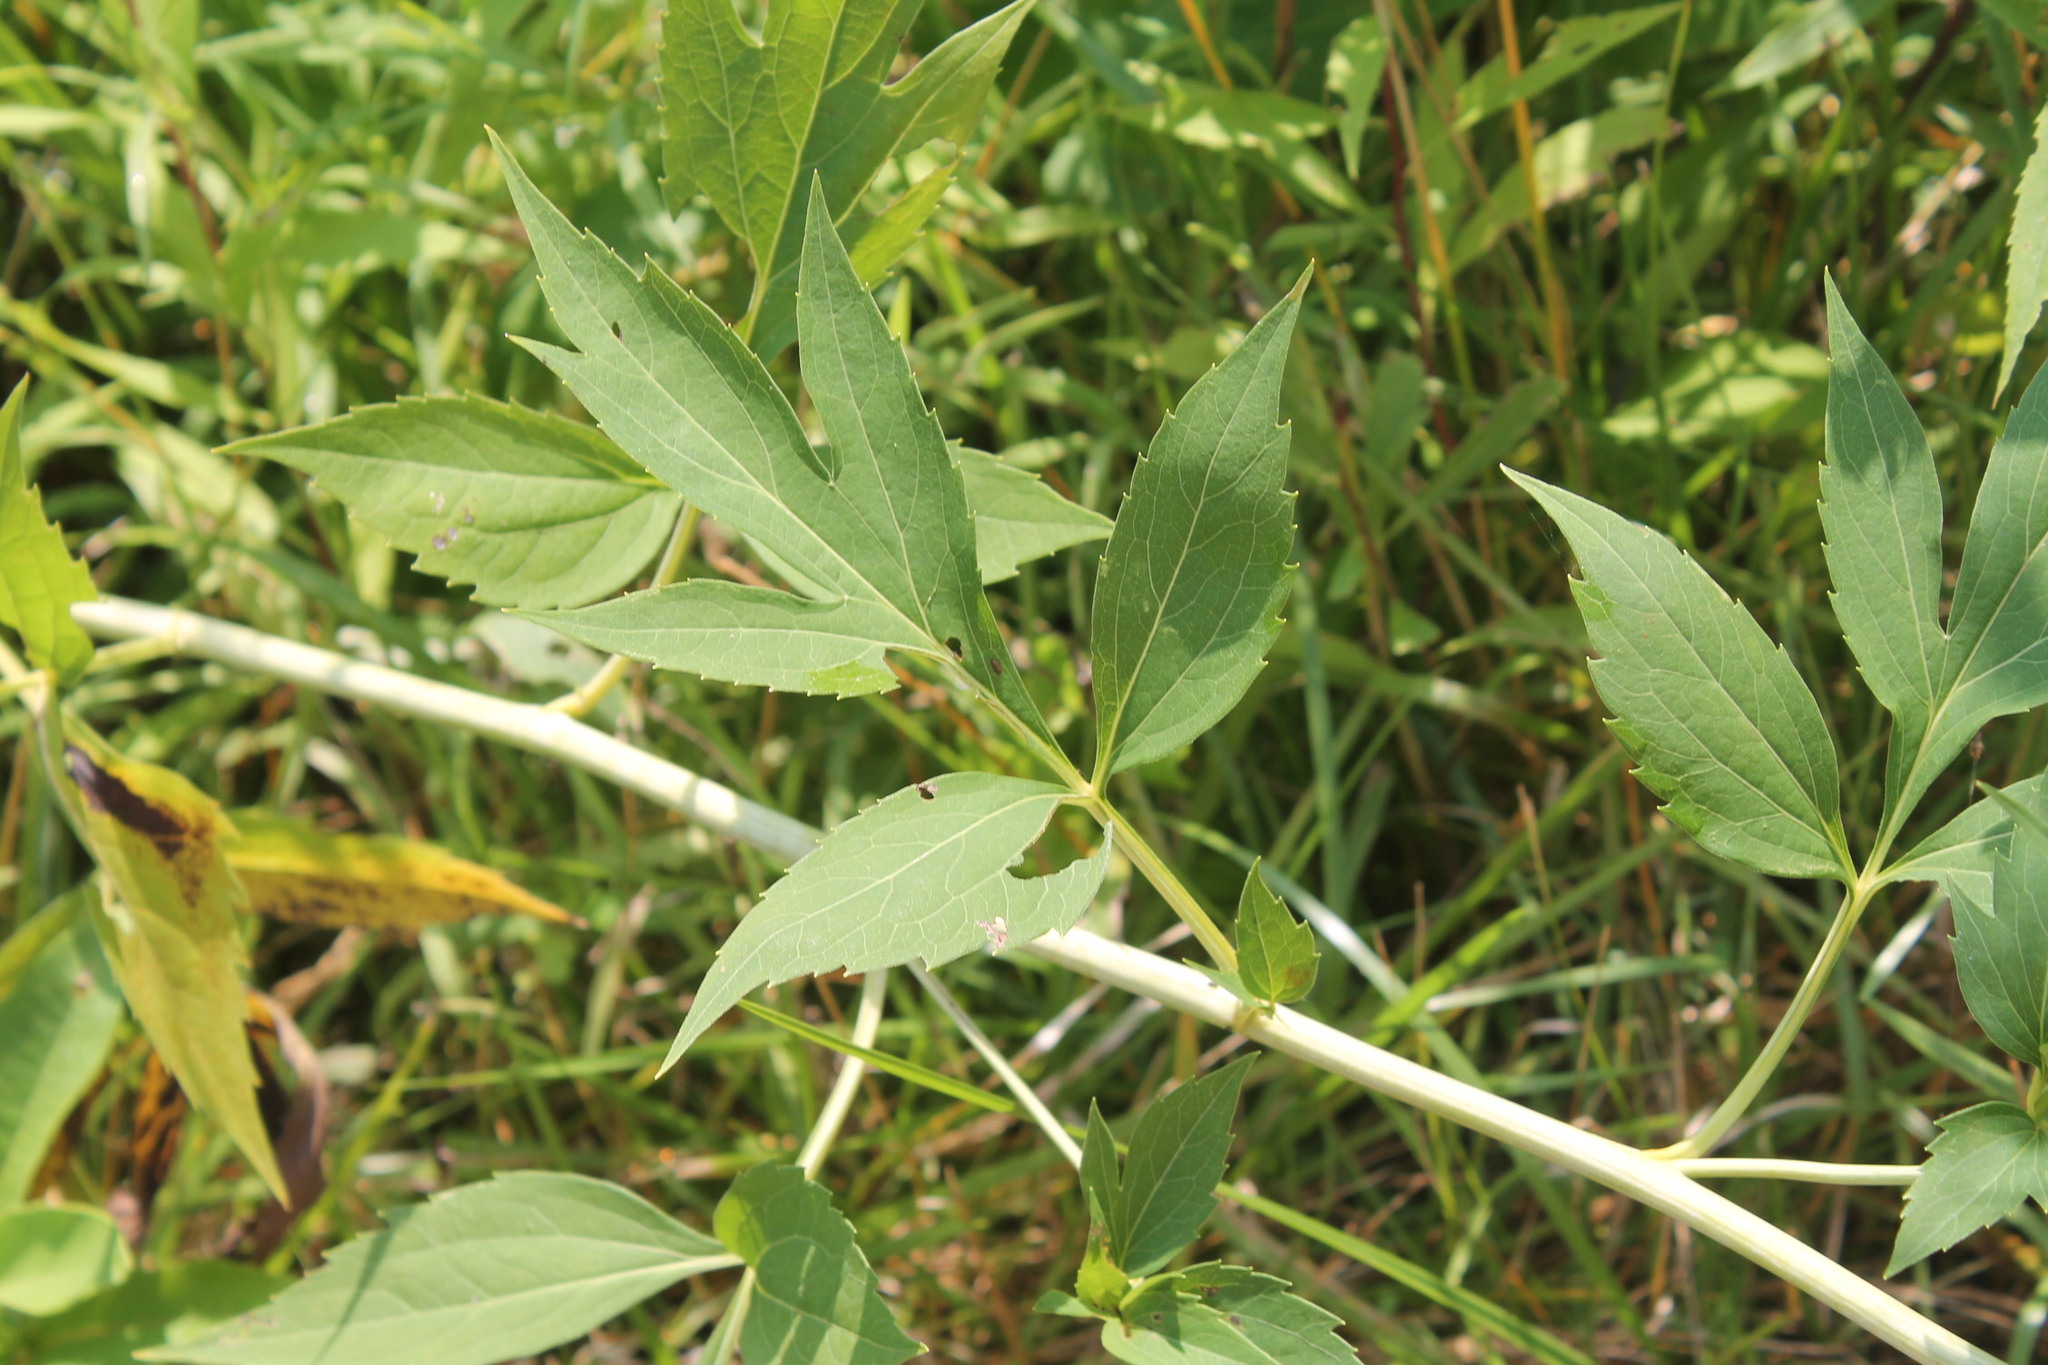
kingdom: Plantae
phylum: Tracheophyta
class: Magnoliopsida
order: Asterales
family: Asteraceae
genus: Rudbeckia
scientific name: Rudbeckia laciniata
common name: Coneflower
